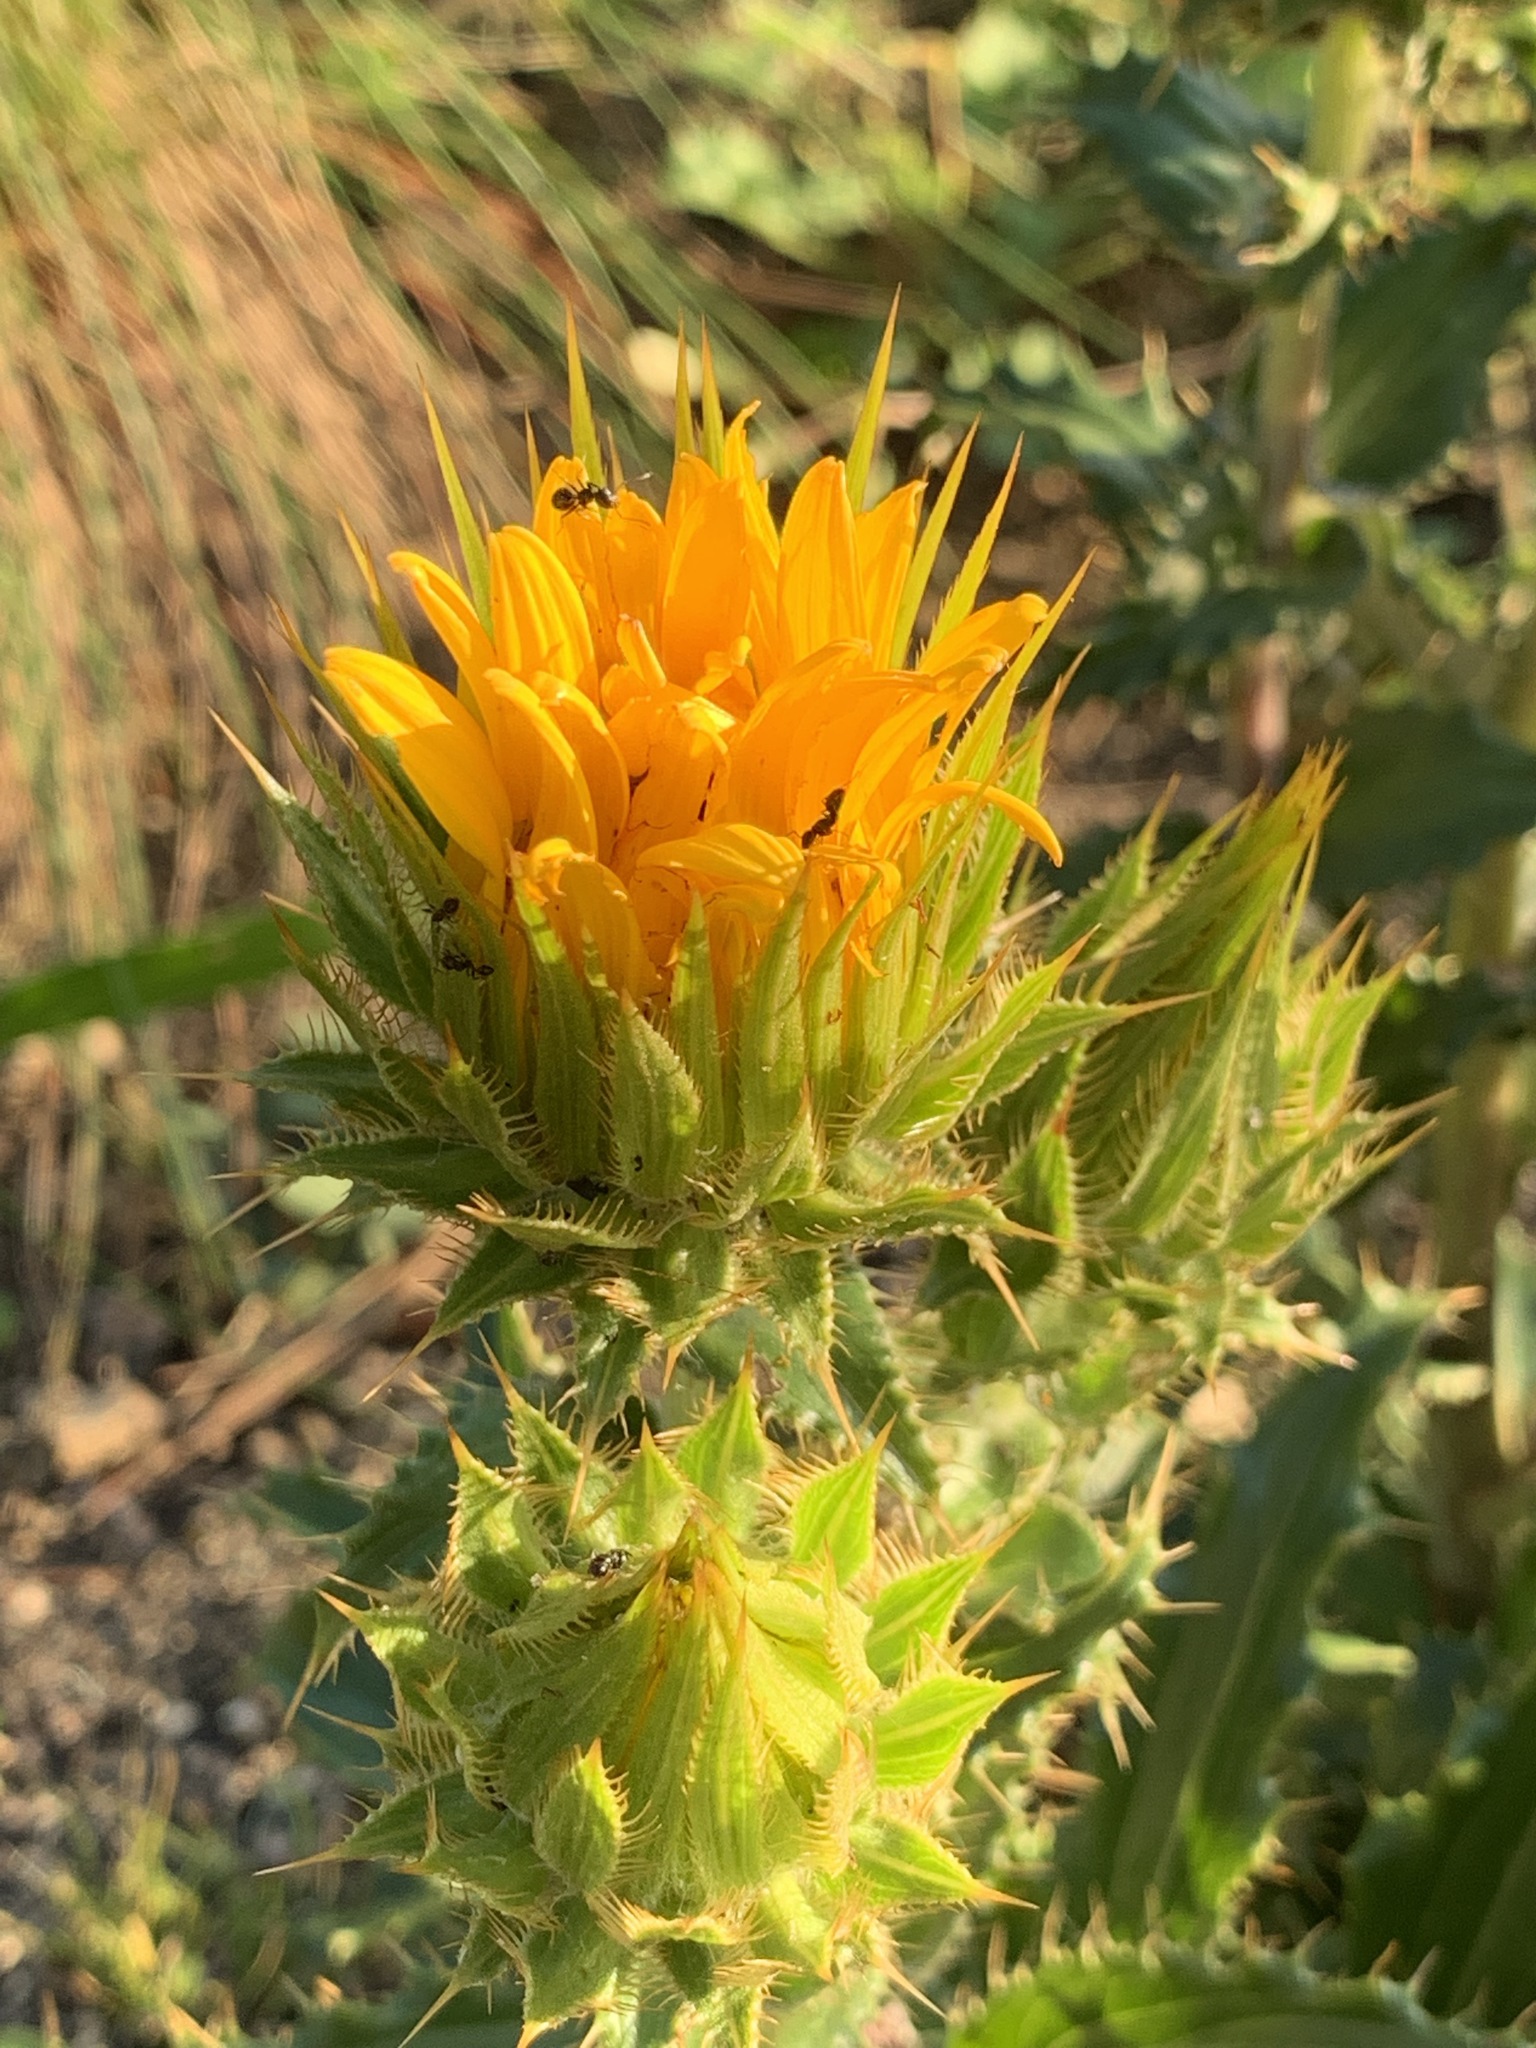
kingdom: Plantae
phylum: Tracheophyta
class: Magnoliopsida
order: Asterales
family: Asteraceae
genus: Berkheya
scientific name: Berkheya armata
